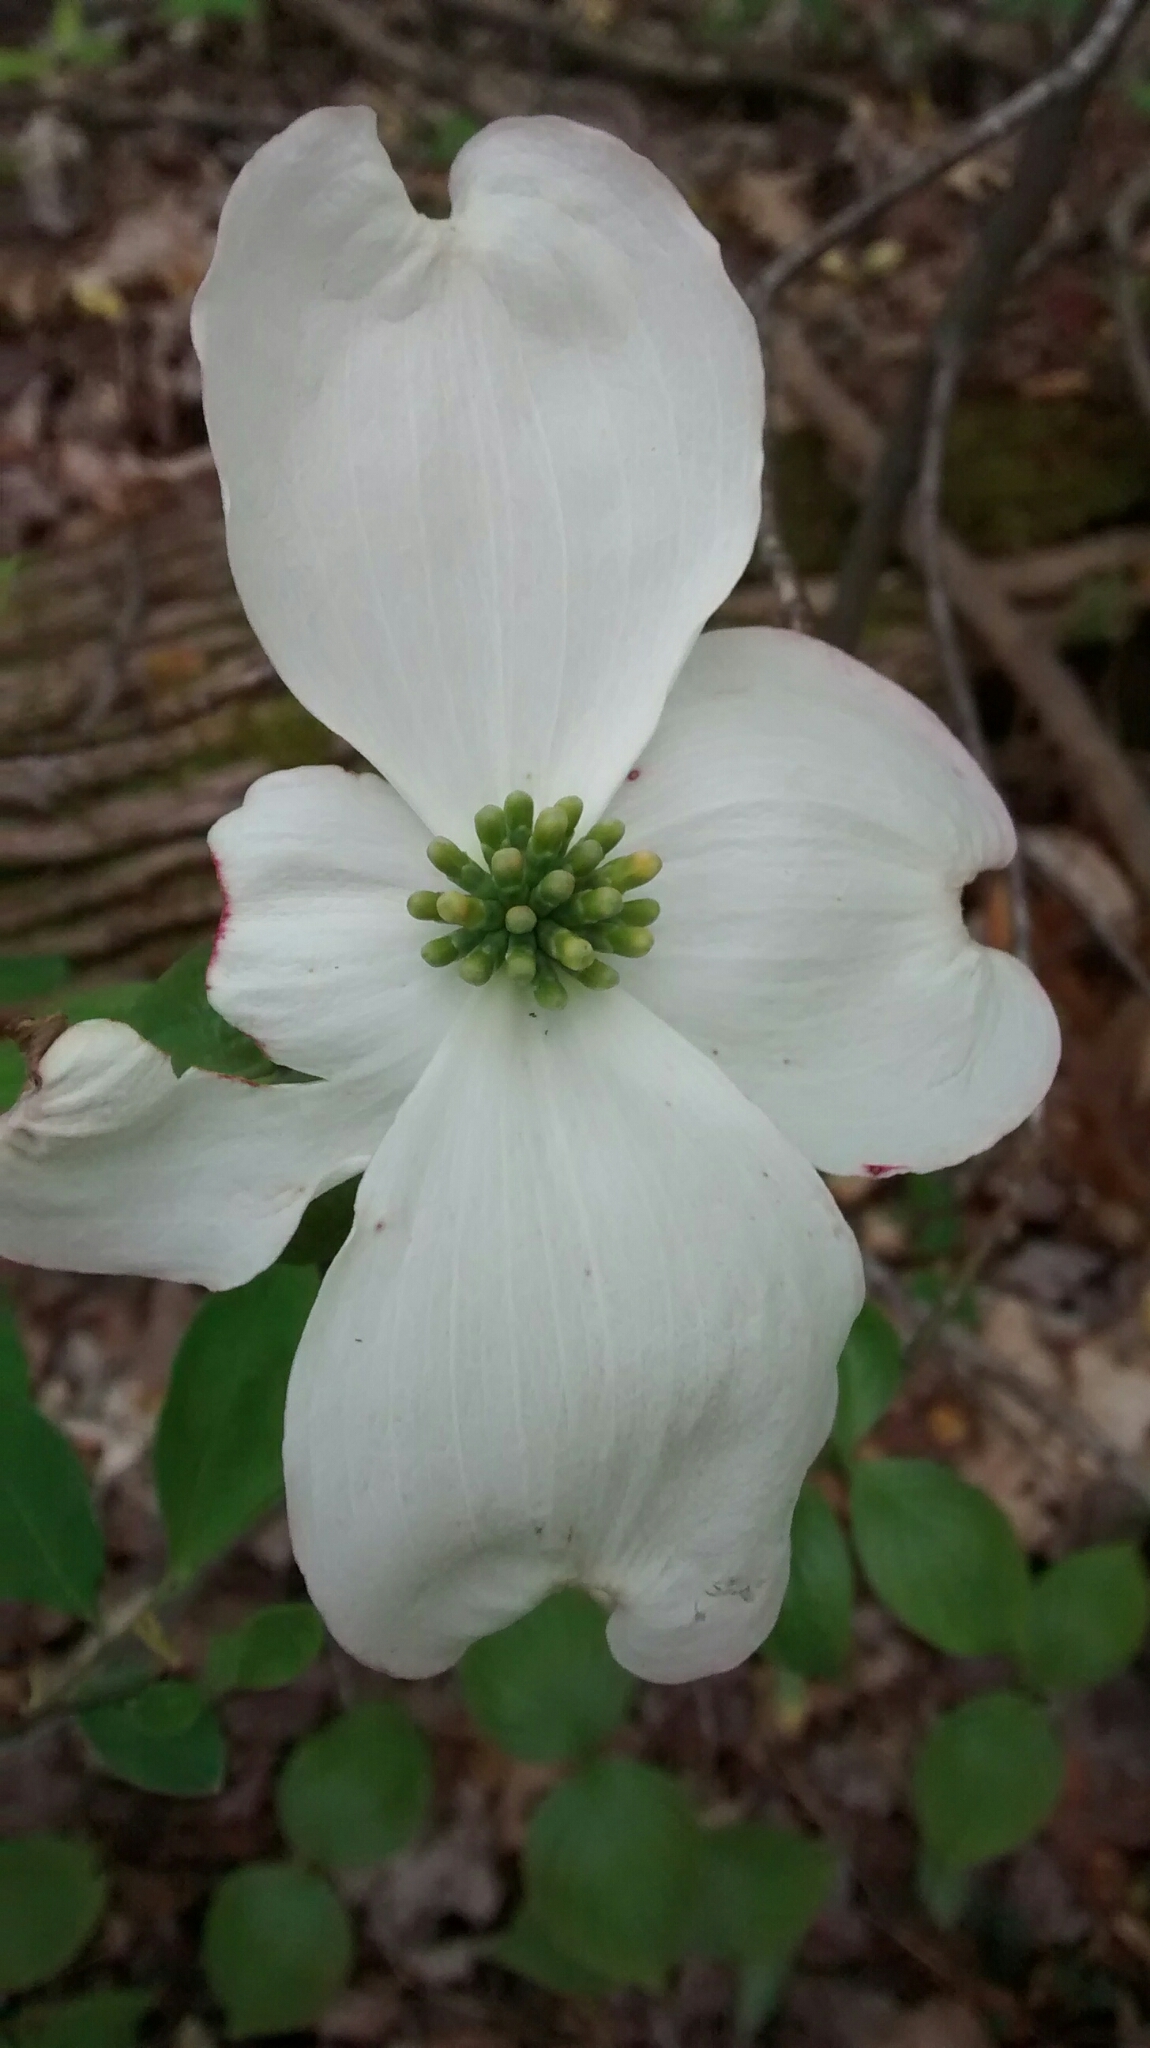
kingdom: Plantae
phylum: Tracheophyta
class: Magnoliopsida
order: Cornales
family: Cornaceae
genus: Cornus
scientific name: Cornus florida
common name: Flowering dogwood
